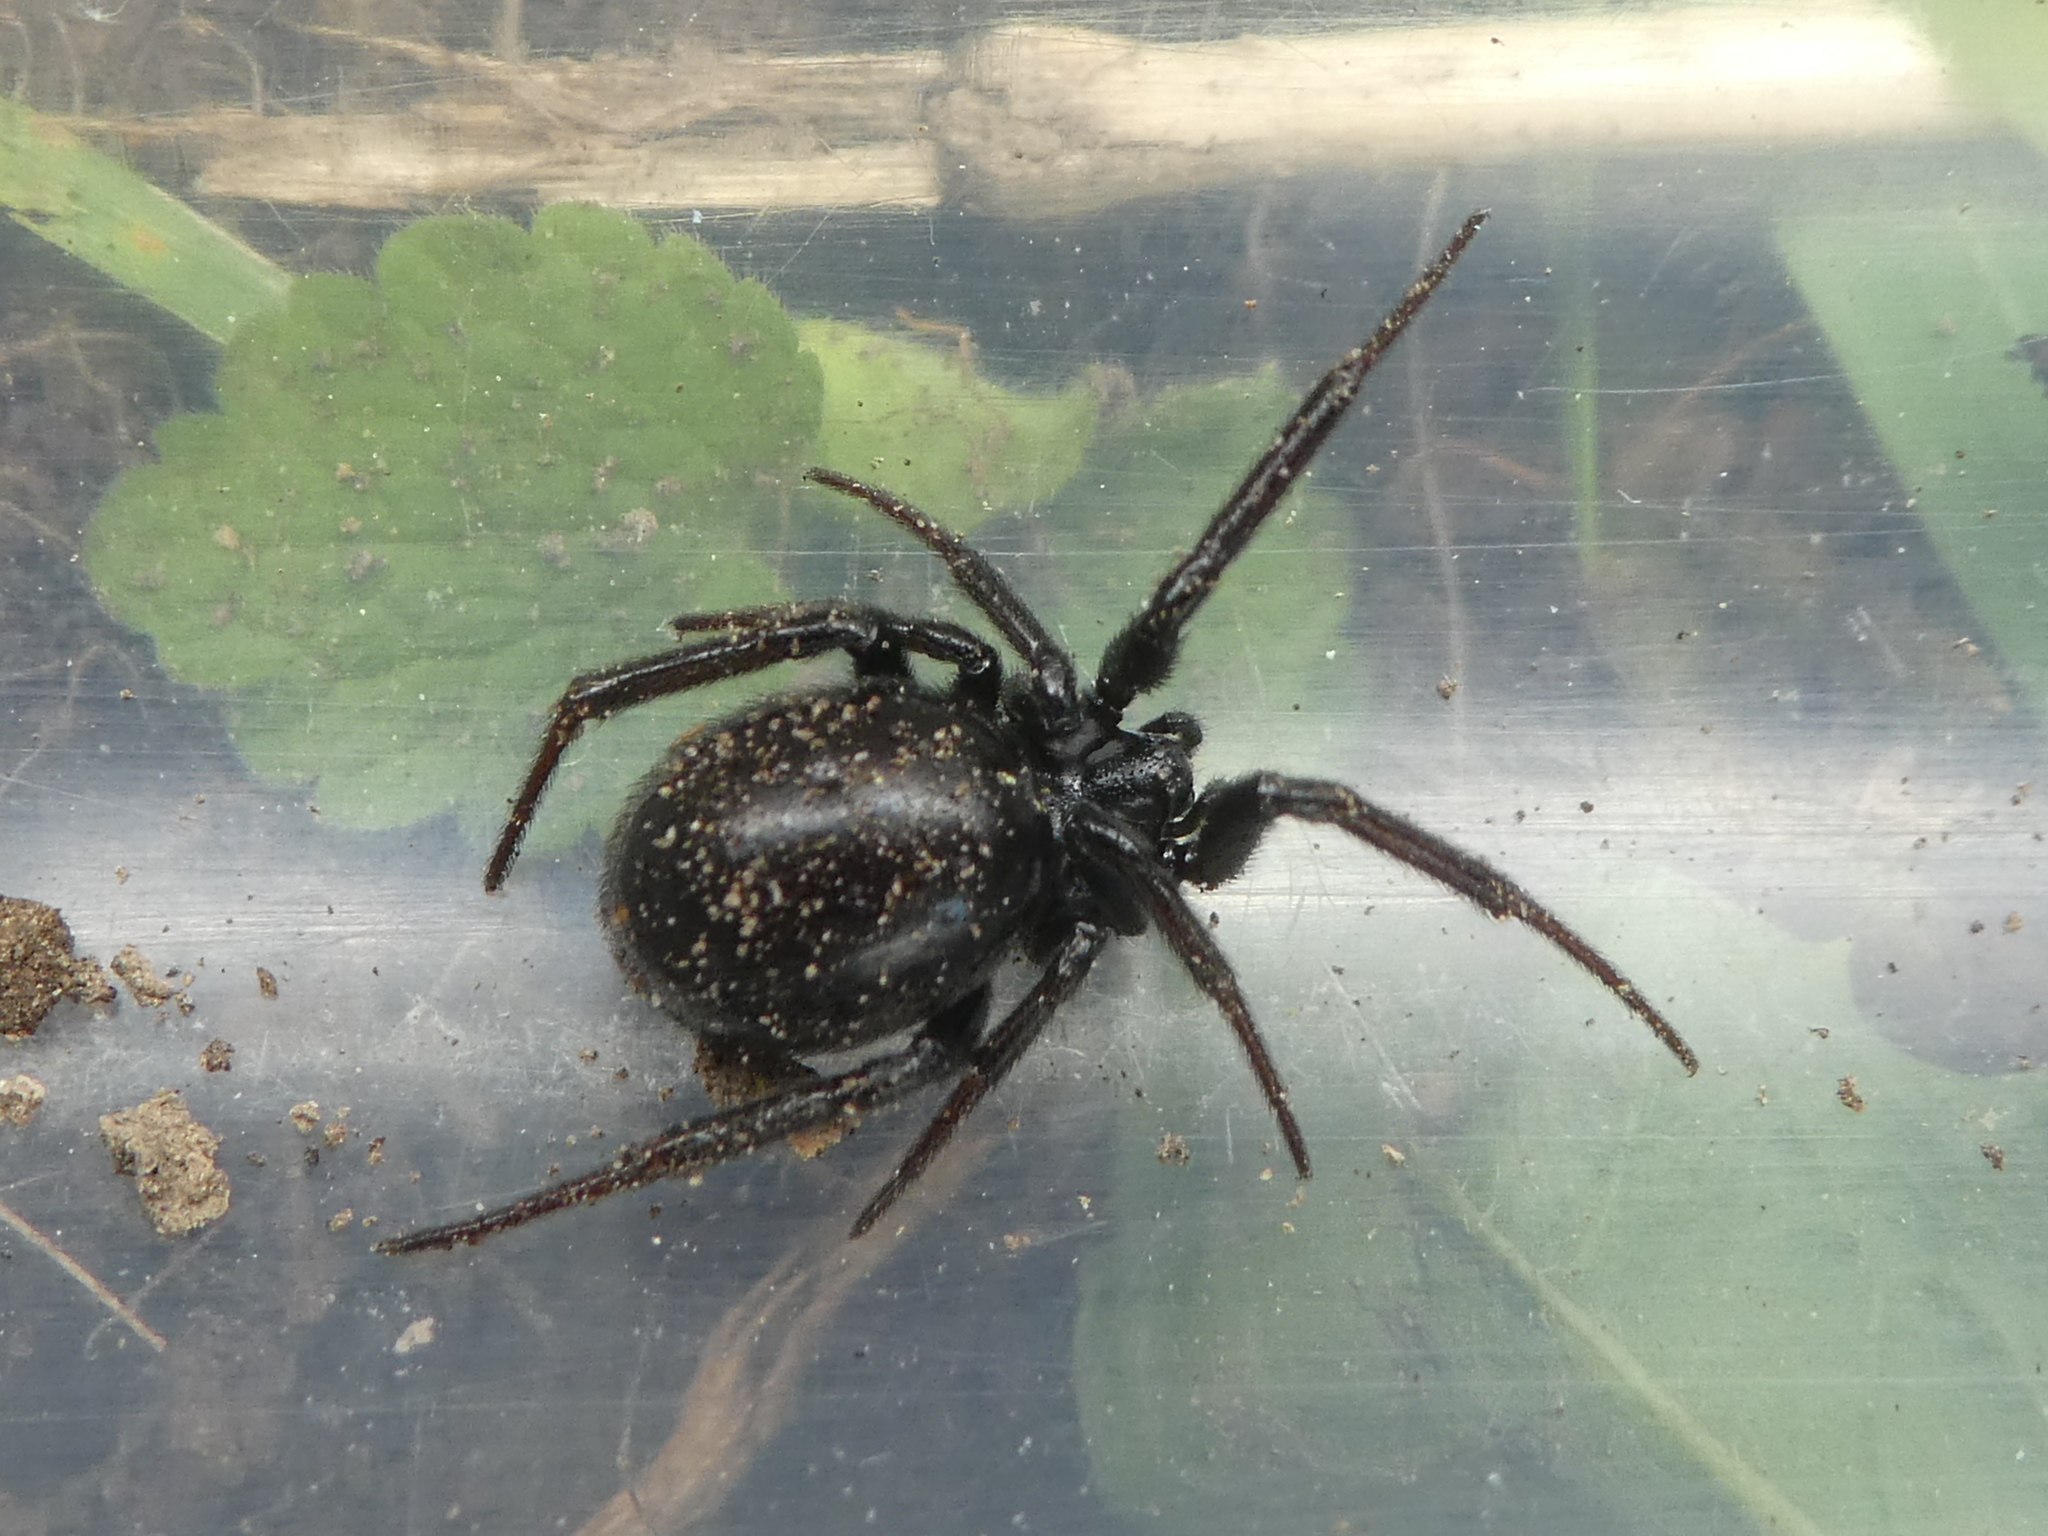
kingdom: Animalia
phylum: Arthropoda
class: Arachnida
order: Araneae
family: Theridiidae
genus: Steatoda
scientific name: Steatoda capensis
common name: Cobweb weaver
